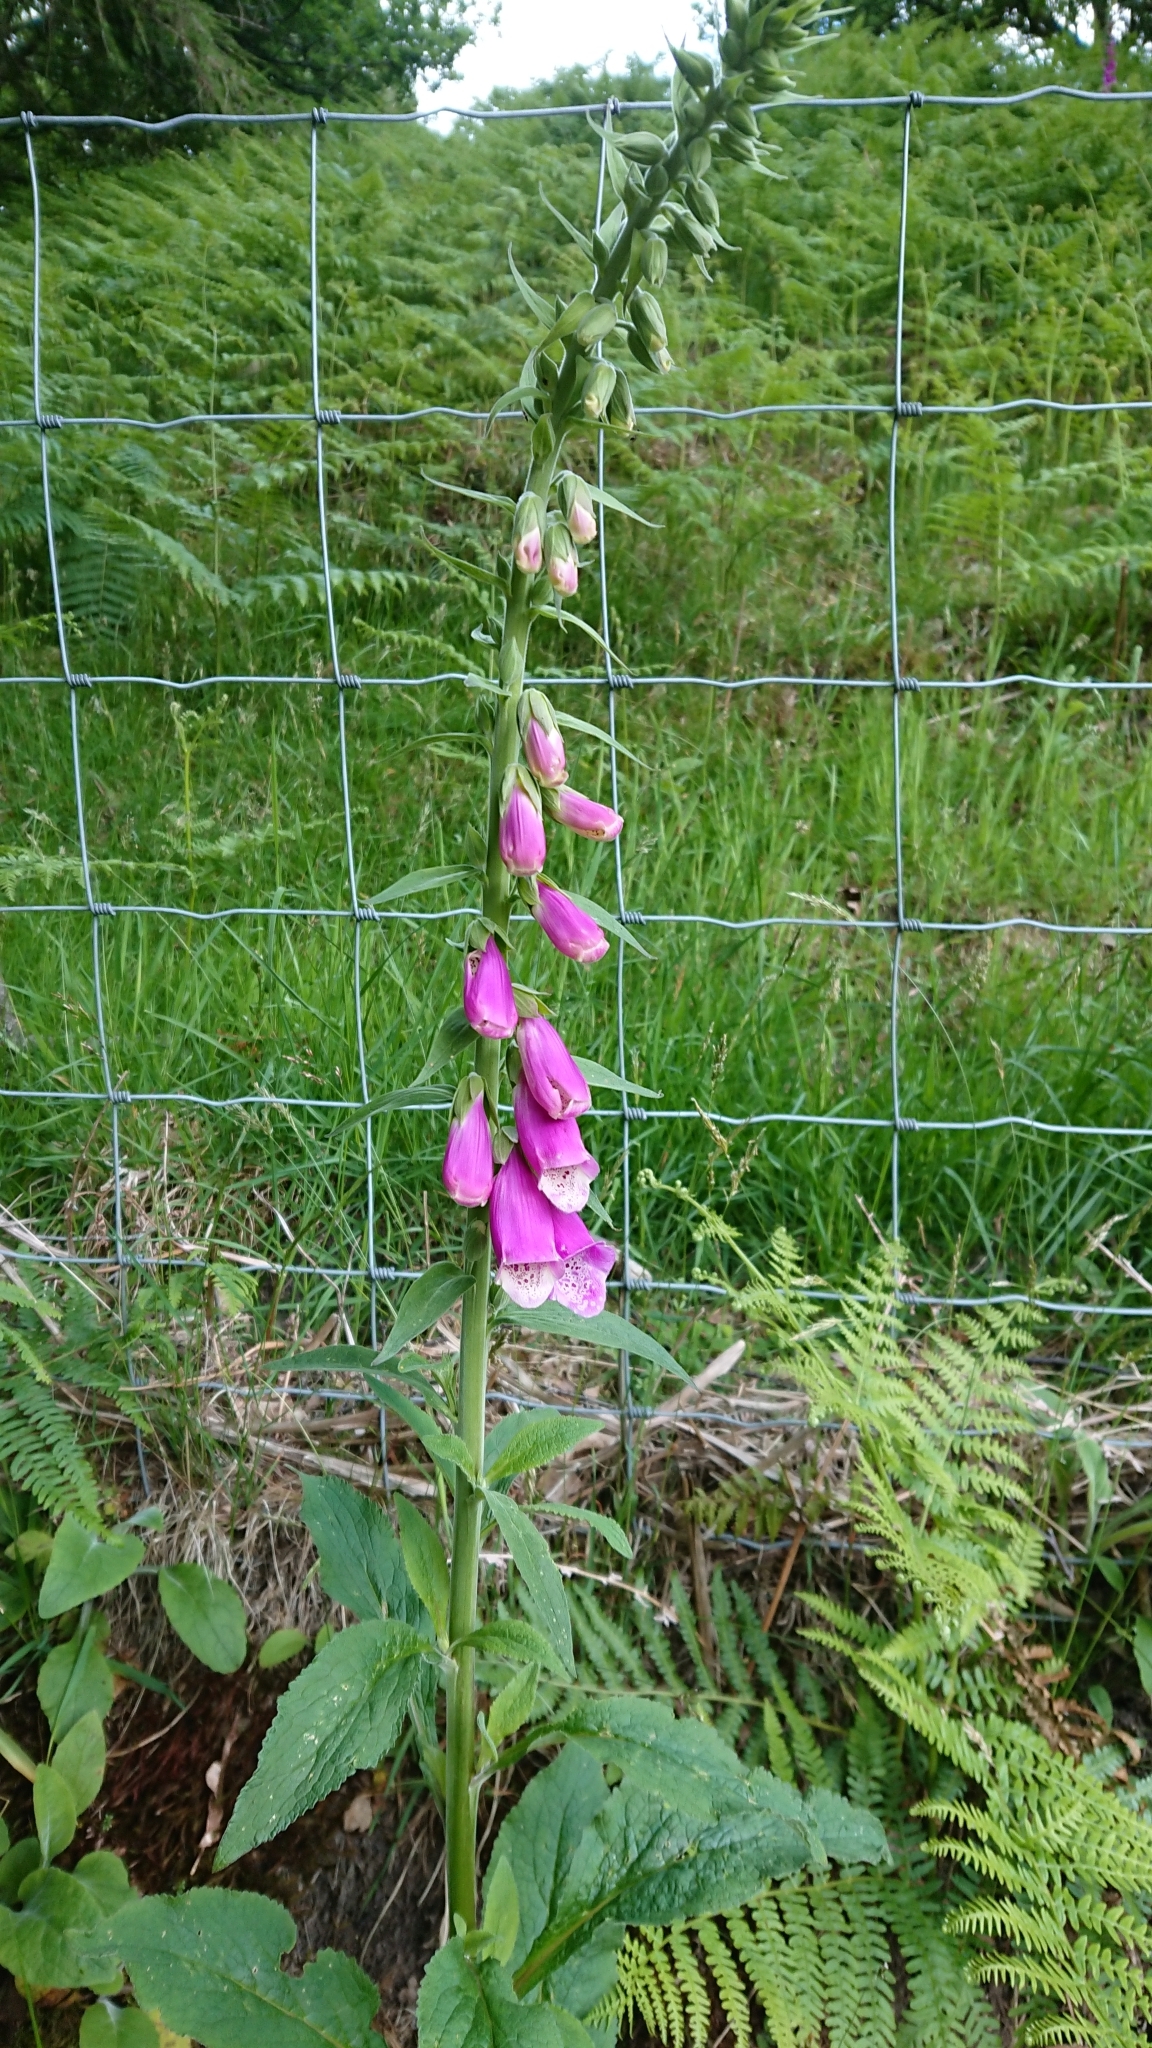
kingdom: Plantae
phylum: Tracheophyta
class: Magnoliopsida
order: Lamiales
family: Plantaginaceae
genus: Digitalis
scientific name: Digitalis purpurea
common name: Foxglove
